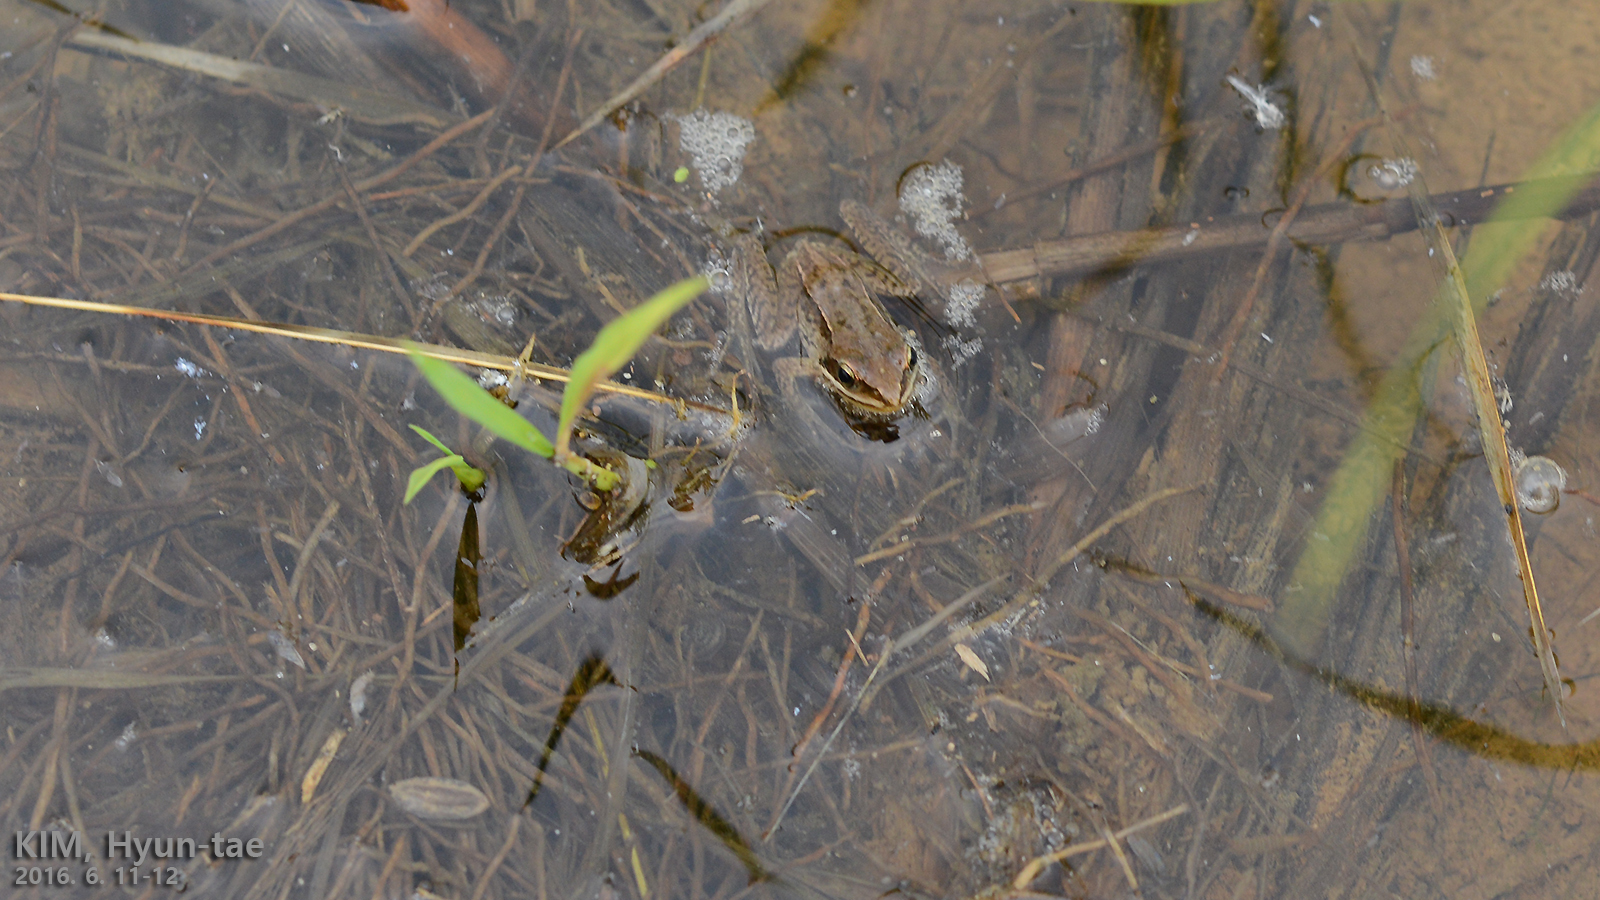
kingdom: Animalia
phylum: Chordata
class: Amphibia
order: Anura
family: Ranidae
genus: Rana
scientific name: Rana coreana
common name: Korean brown frog
